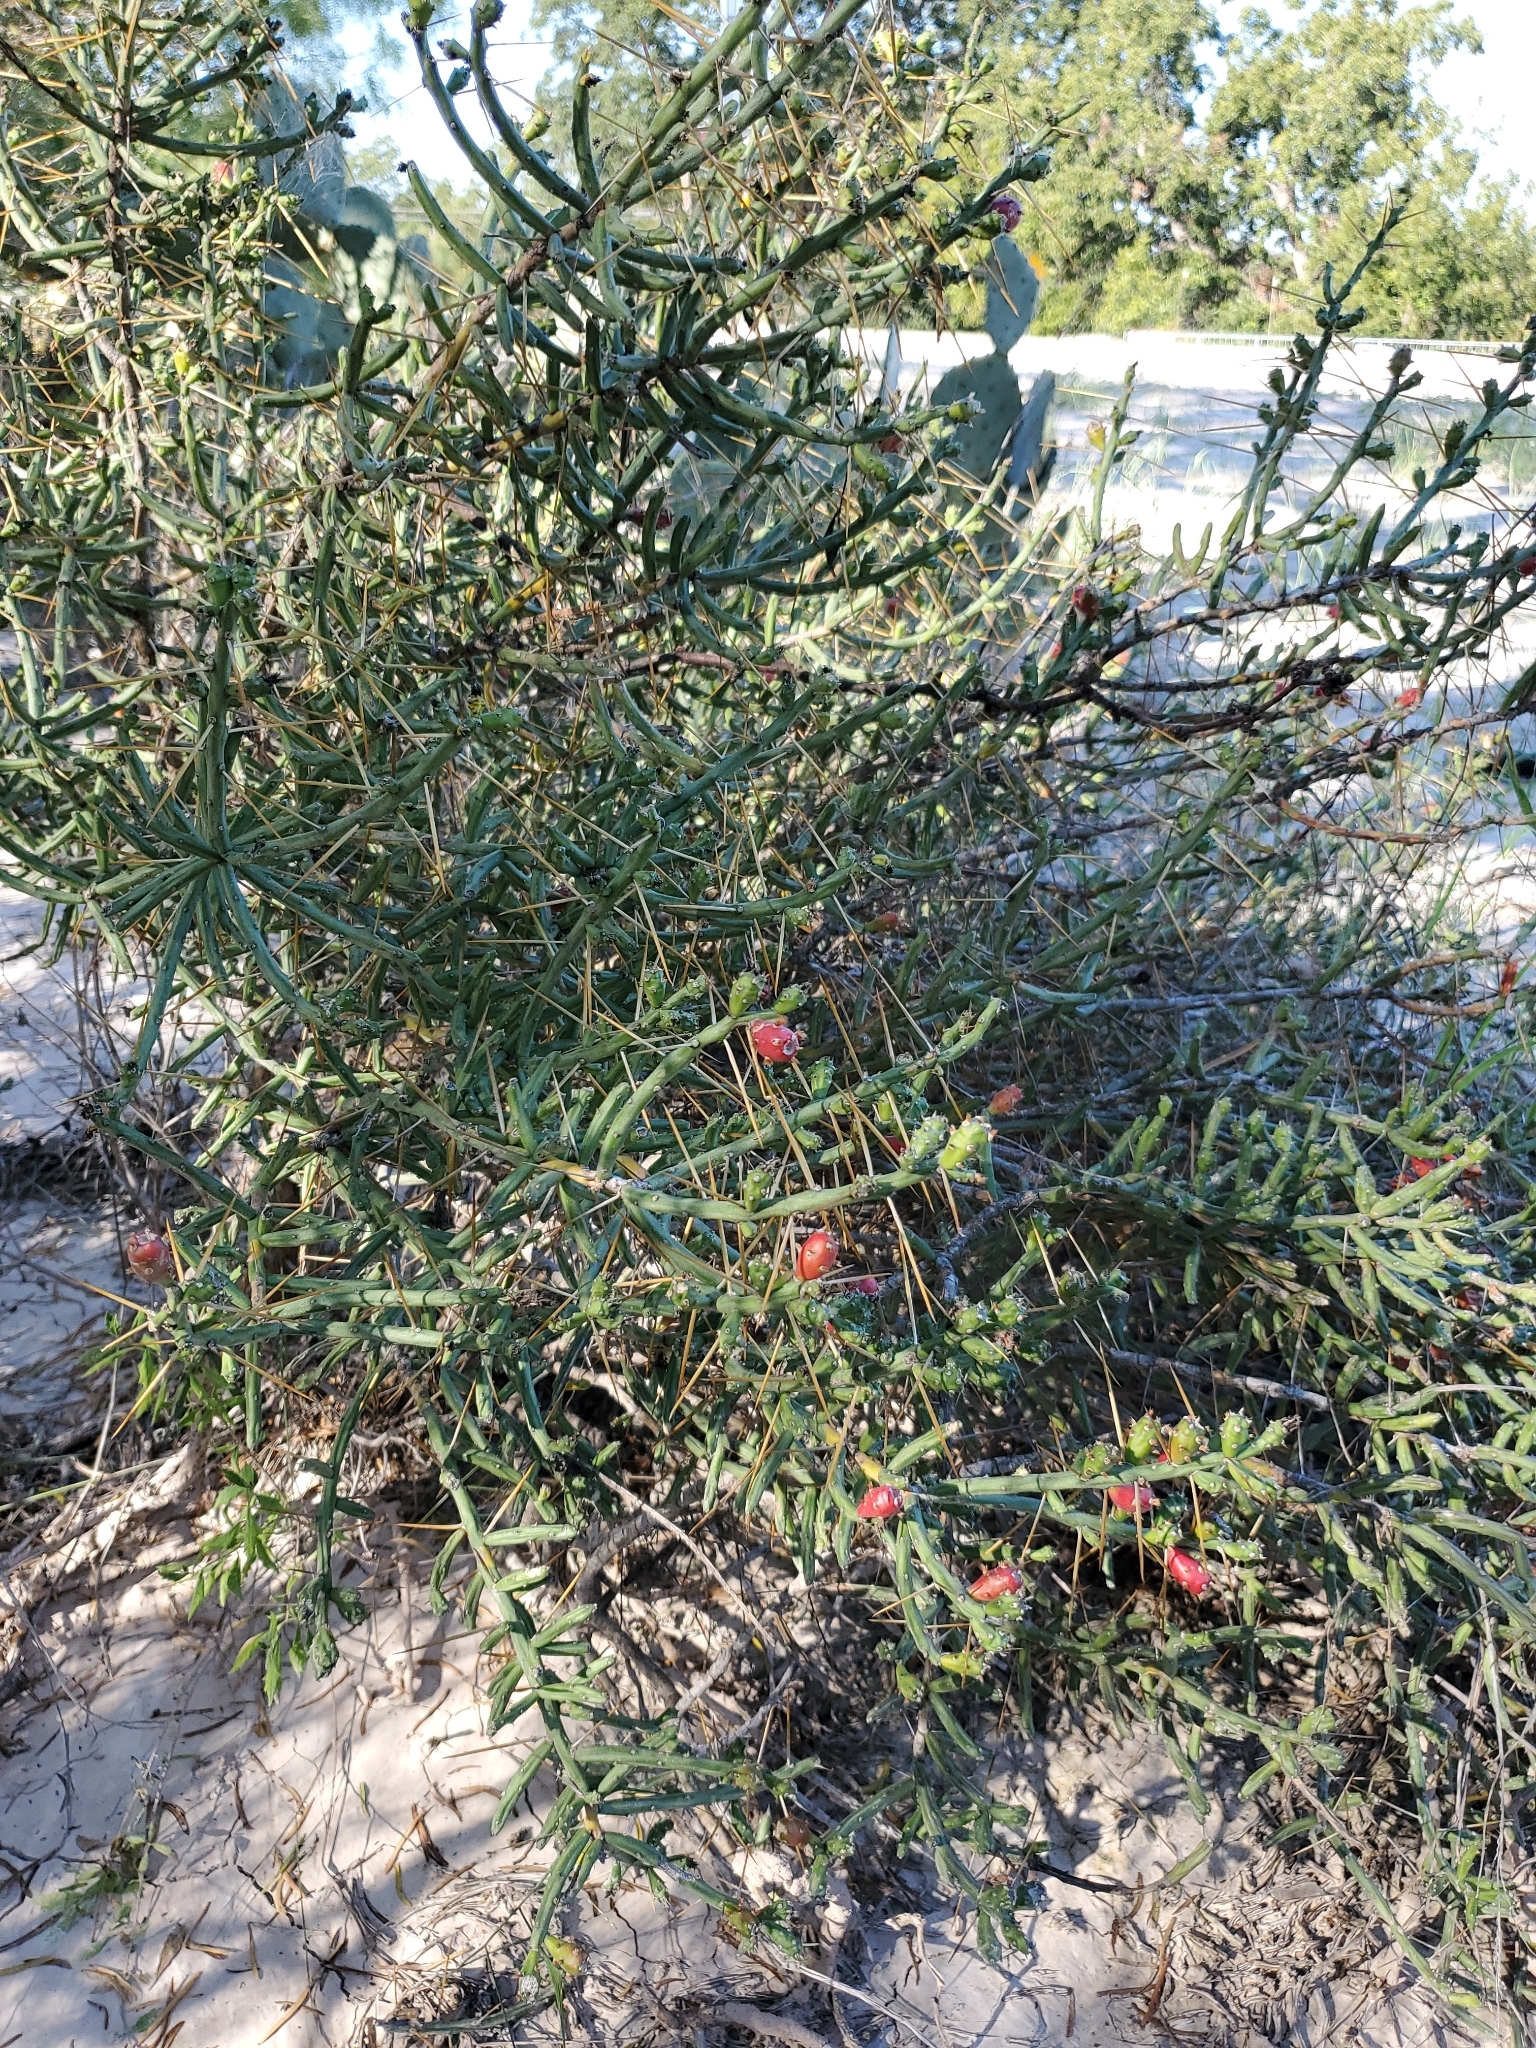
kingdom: Plantae
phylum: Tracheophyta
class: Magnoliopsida
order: Caryophyllales
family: Cactaceae
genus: Cylindropuntia
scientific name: Cylindropuntia leptocaulis
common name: Christmas cactus
